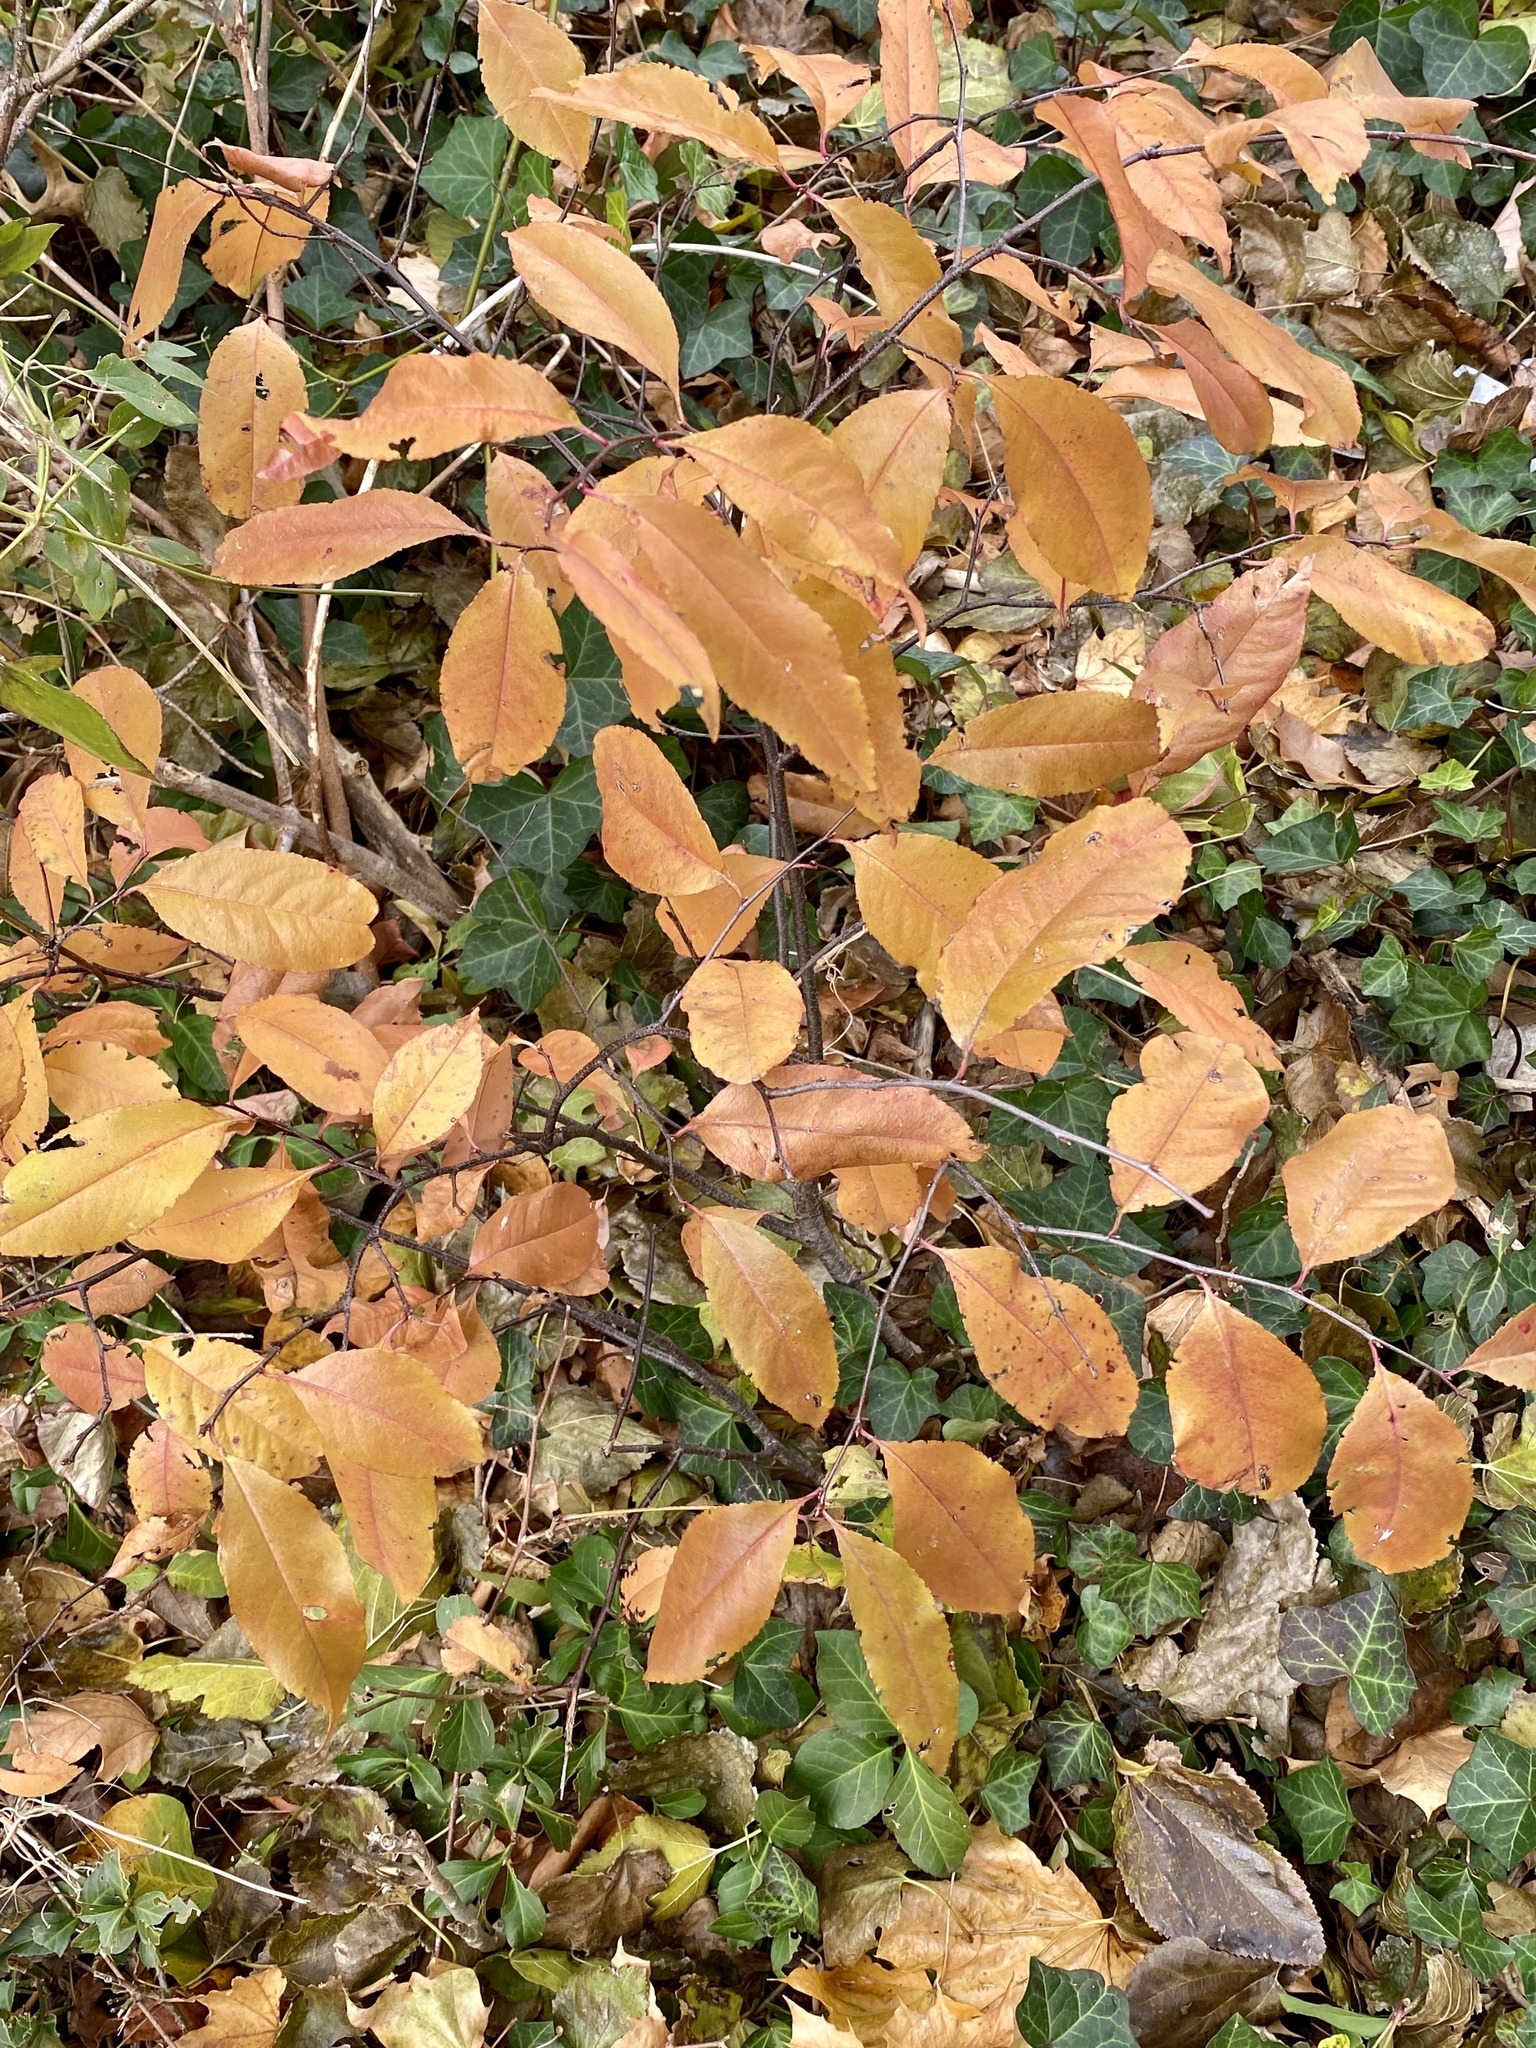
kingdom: Plantae
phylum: Tracheophyta
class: Magnoliopsida
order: Rosales
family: Rosaceae
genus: Prunus
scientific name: Prunus serotina
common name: Black cherry
